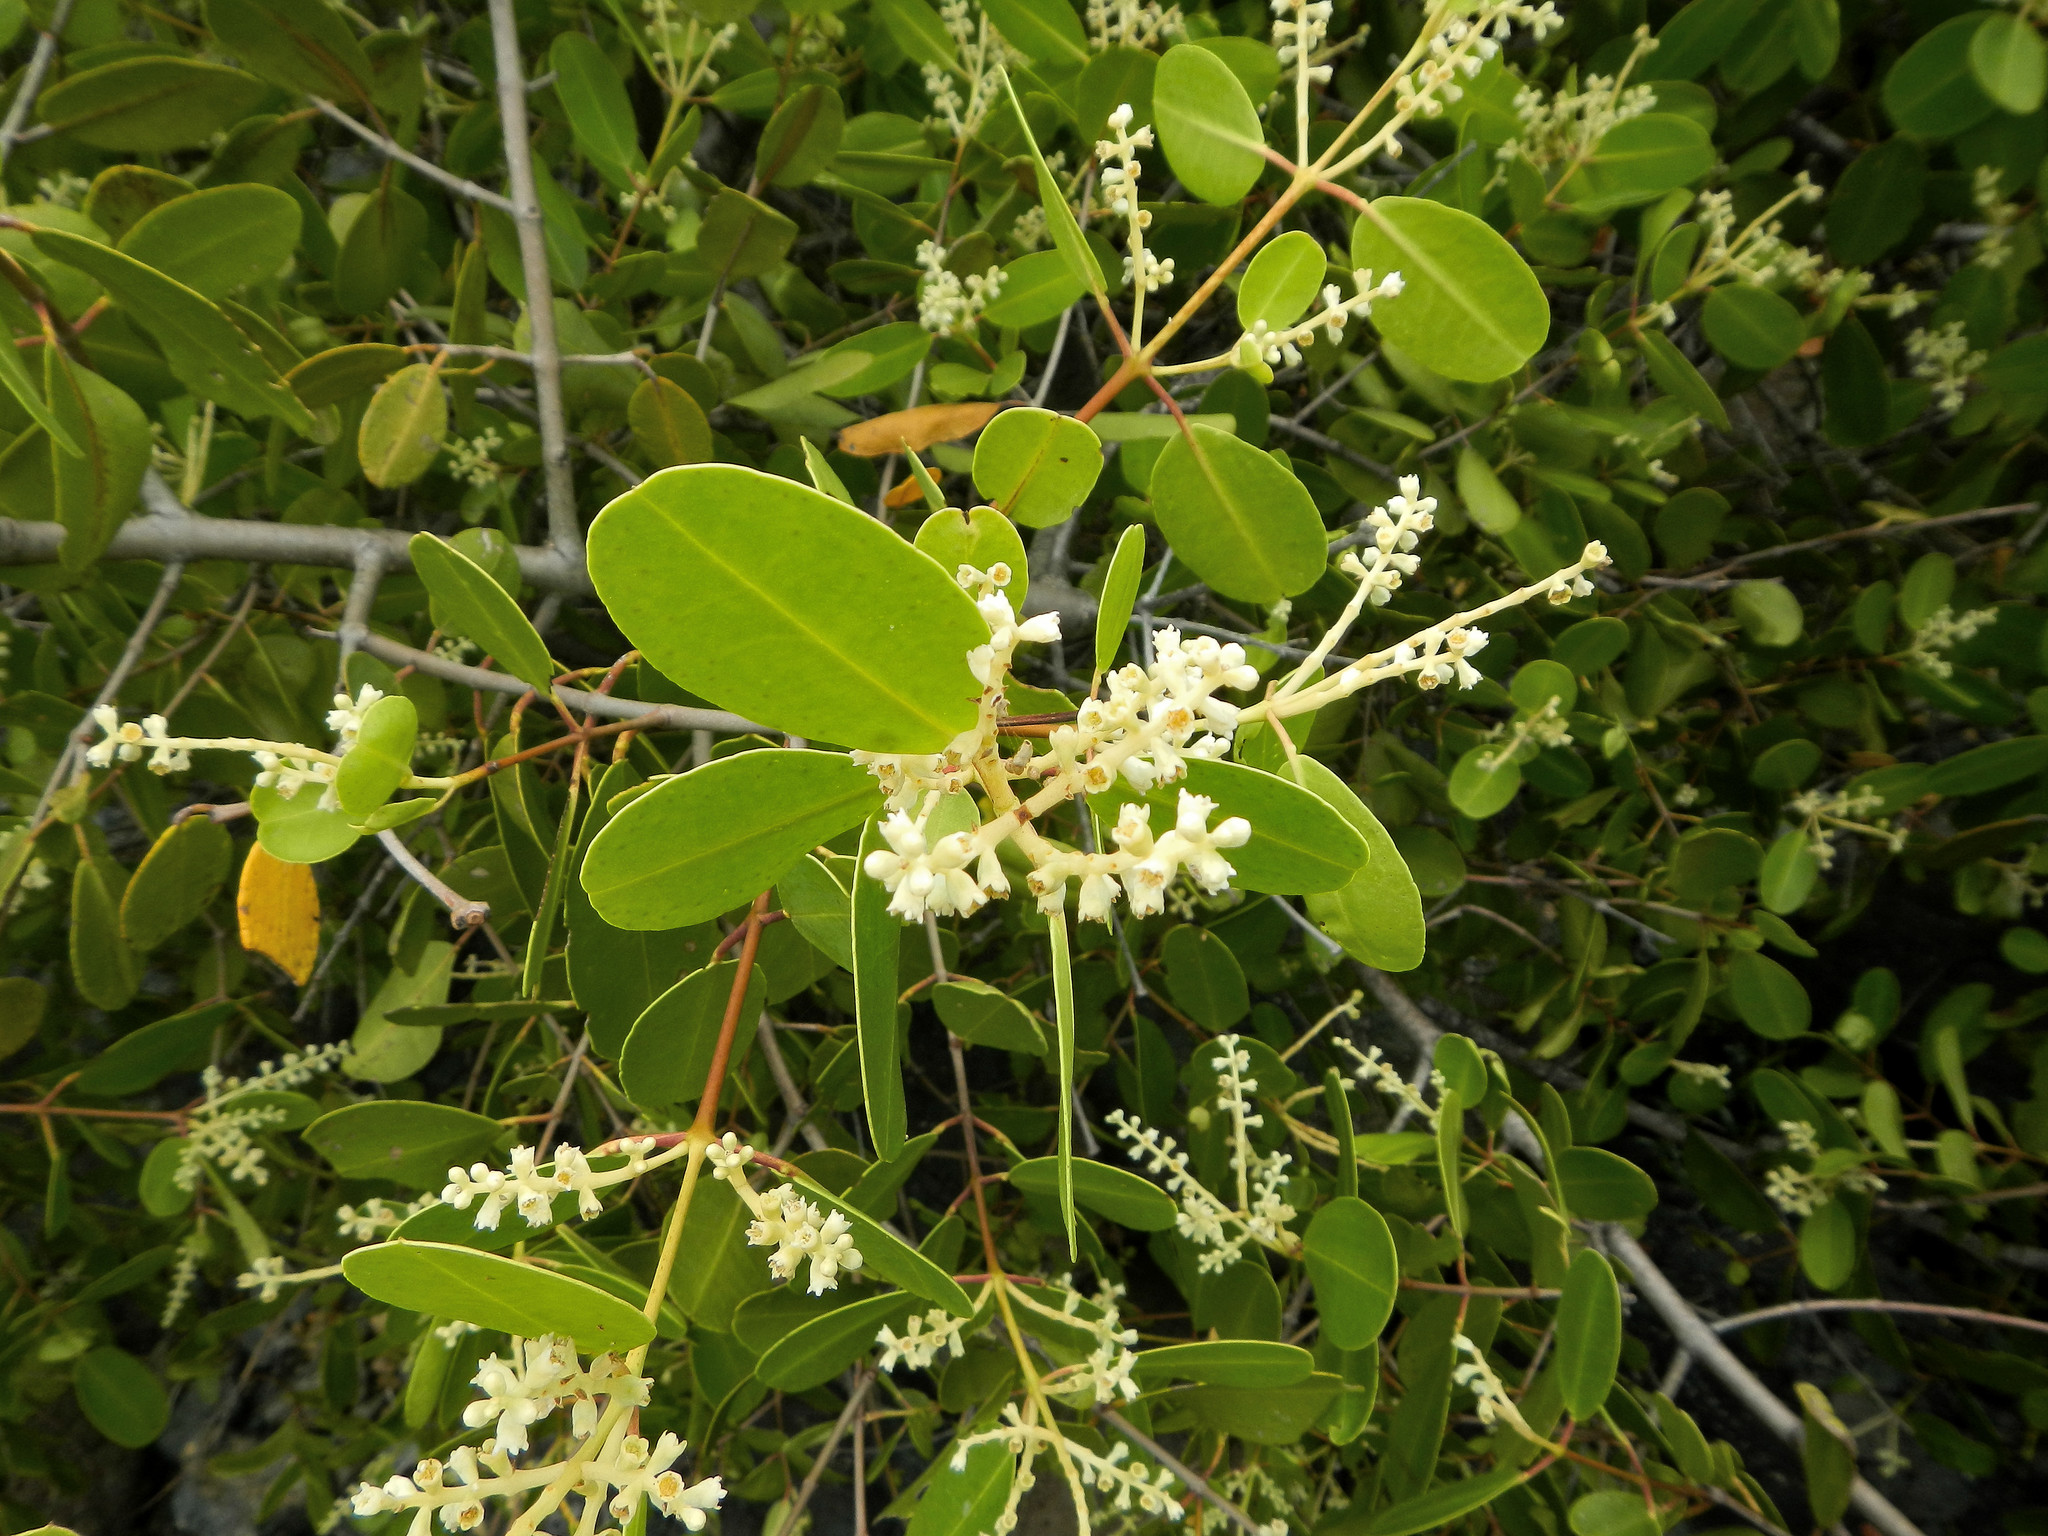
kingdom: Plantae
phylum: Tracheophyta
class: Magnoliopsida
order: Myrtales
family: Combretaceae
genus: Laguncularia
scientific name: Laguncularia racemosa
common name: White mangrove
